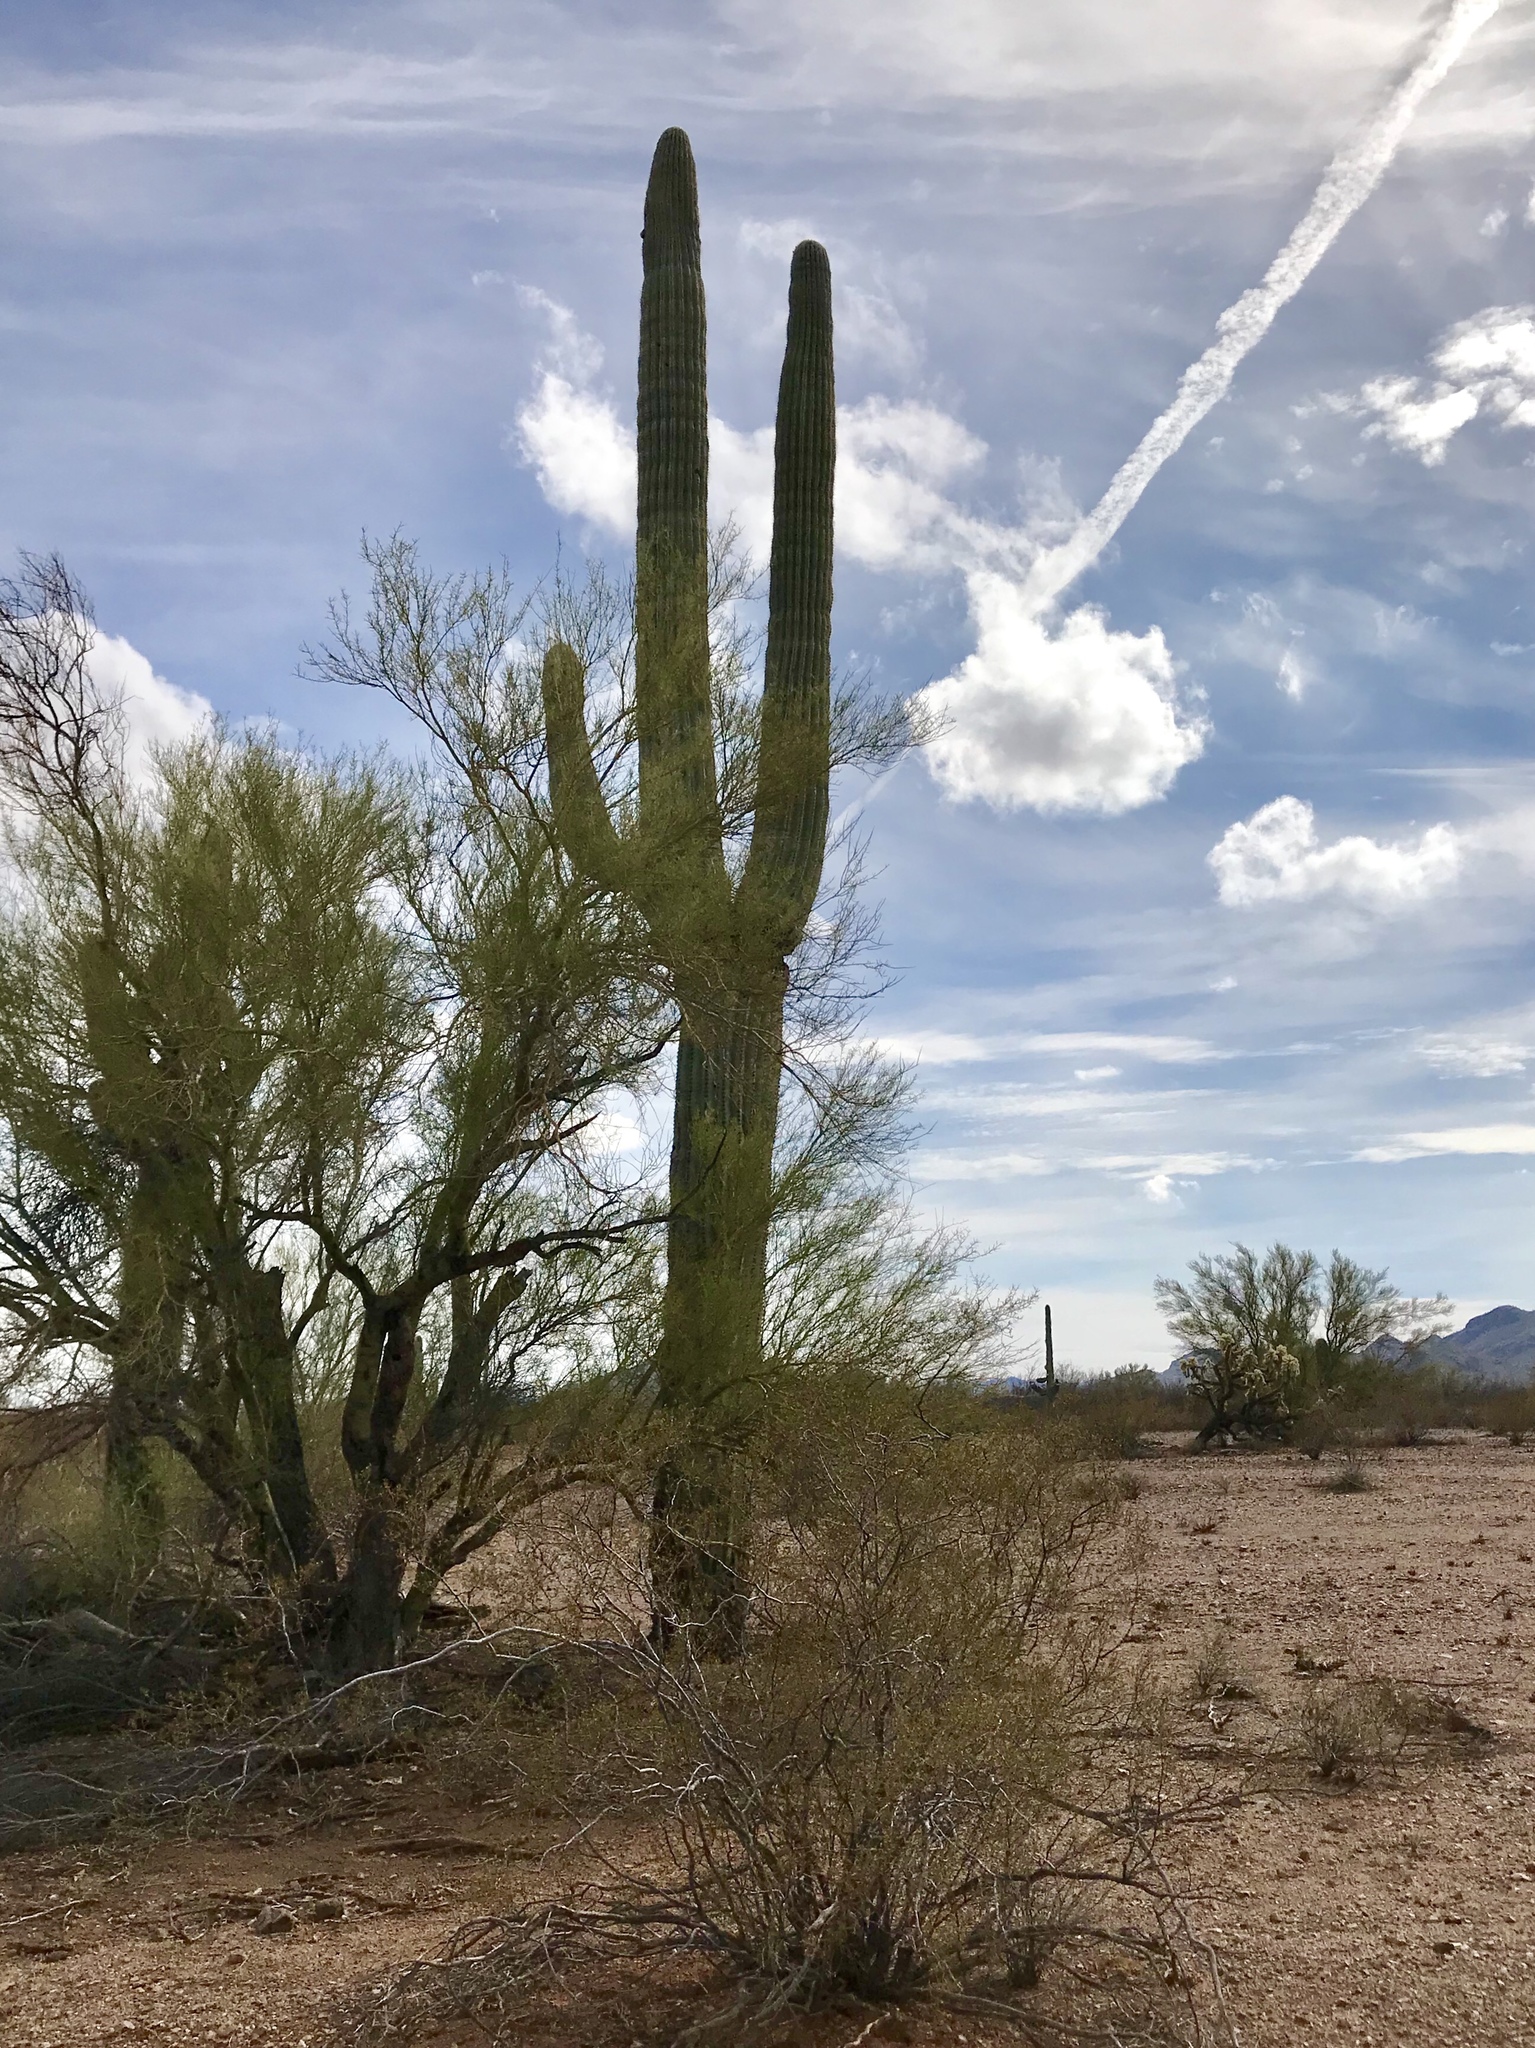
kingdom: Plantae
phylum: Tracheophyta
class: Magnoliopsida
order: Caryophyllales
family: Cactaceae
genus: Carnegiea
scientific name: Carnegiea gigantea
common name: Saguaro
